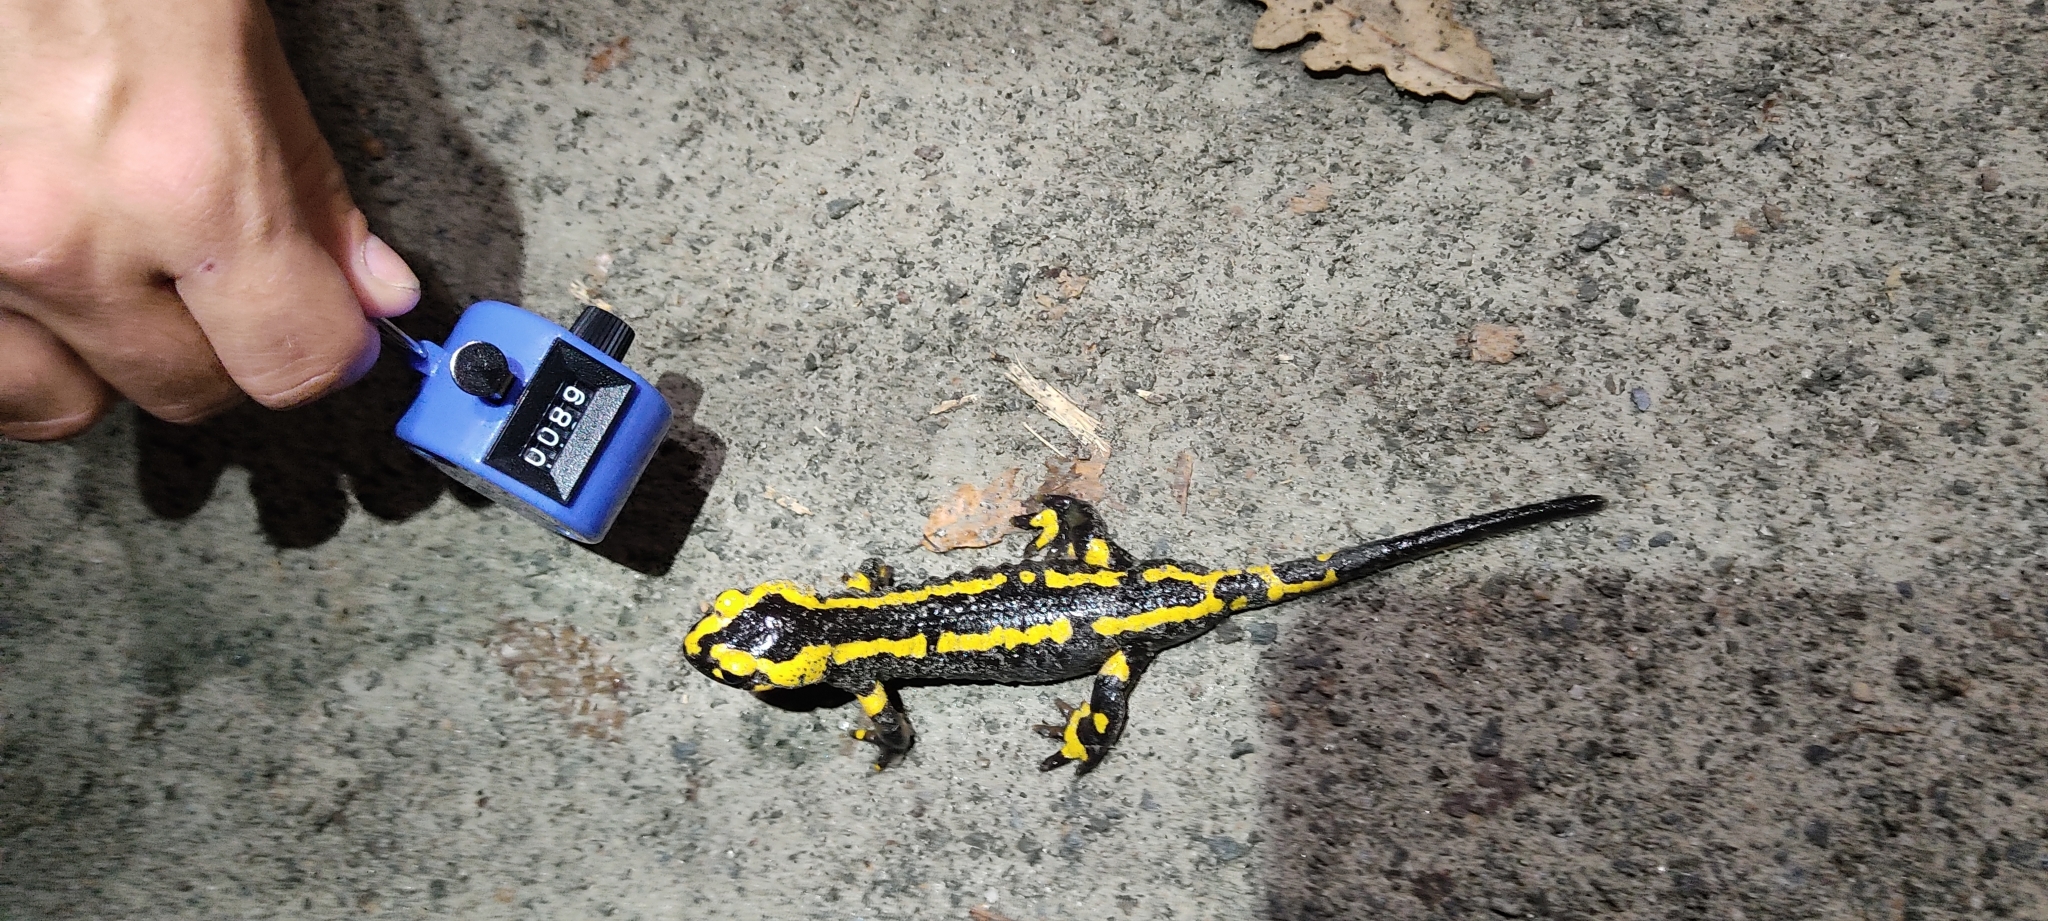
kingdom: Animalia
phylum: Chordata
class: Amphibia
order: Caudata
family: Salamandridae
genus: Salamandra
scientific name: Salamandra salamandra
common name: Fire salamander
